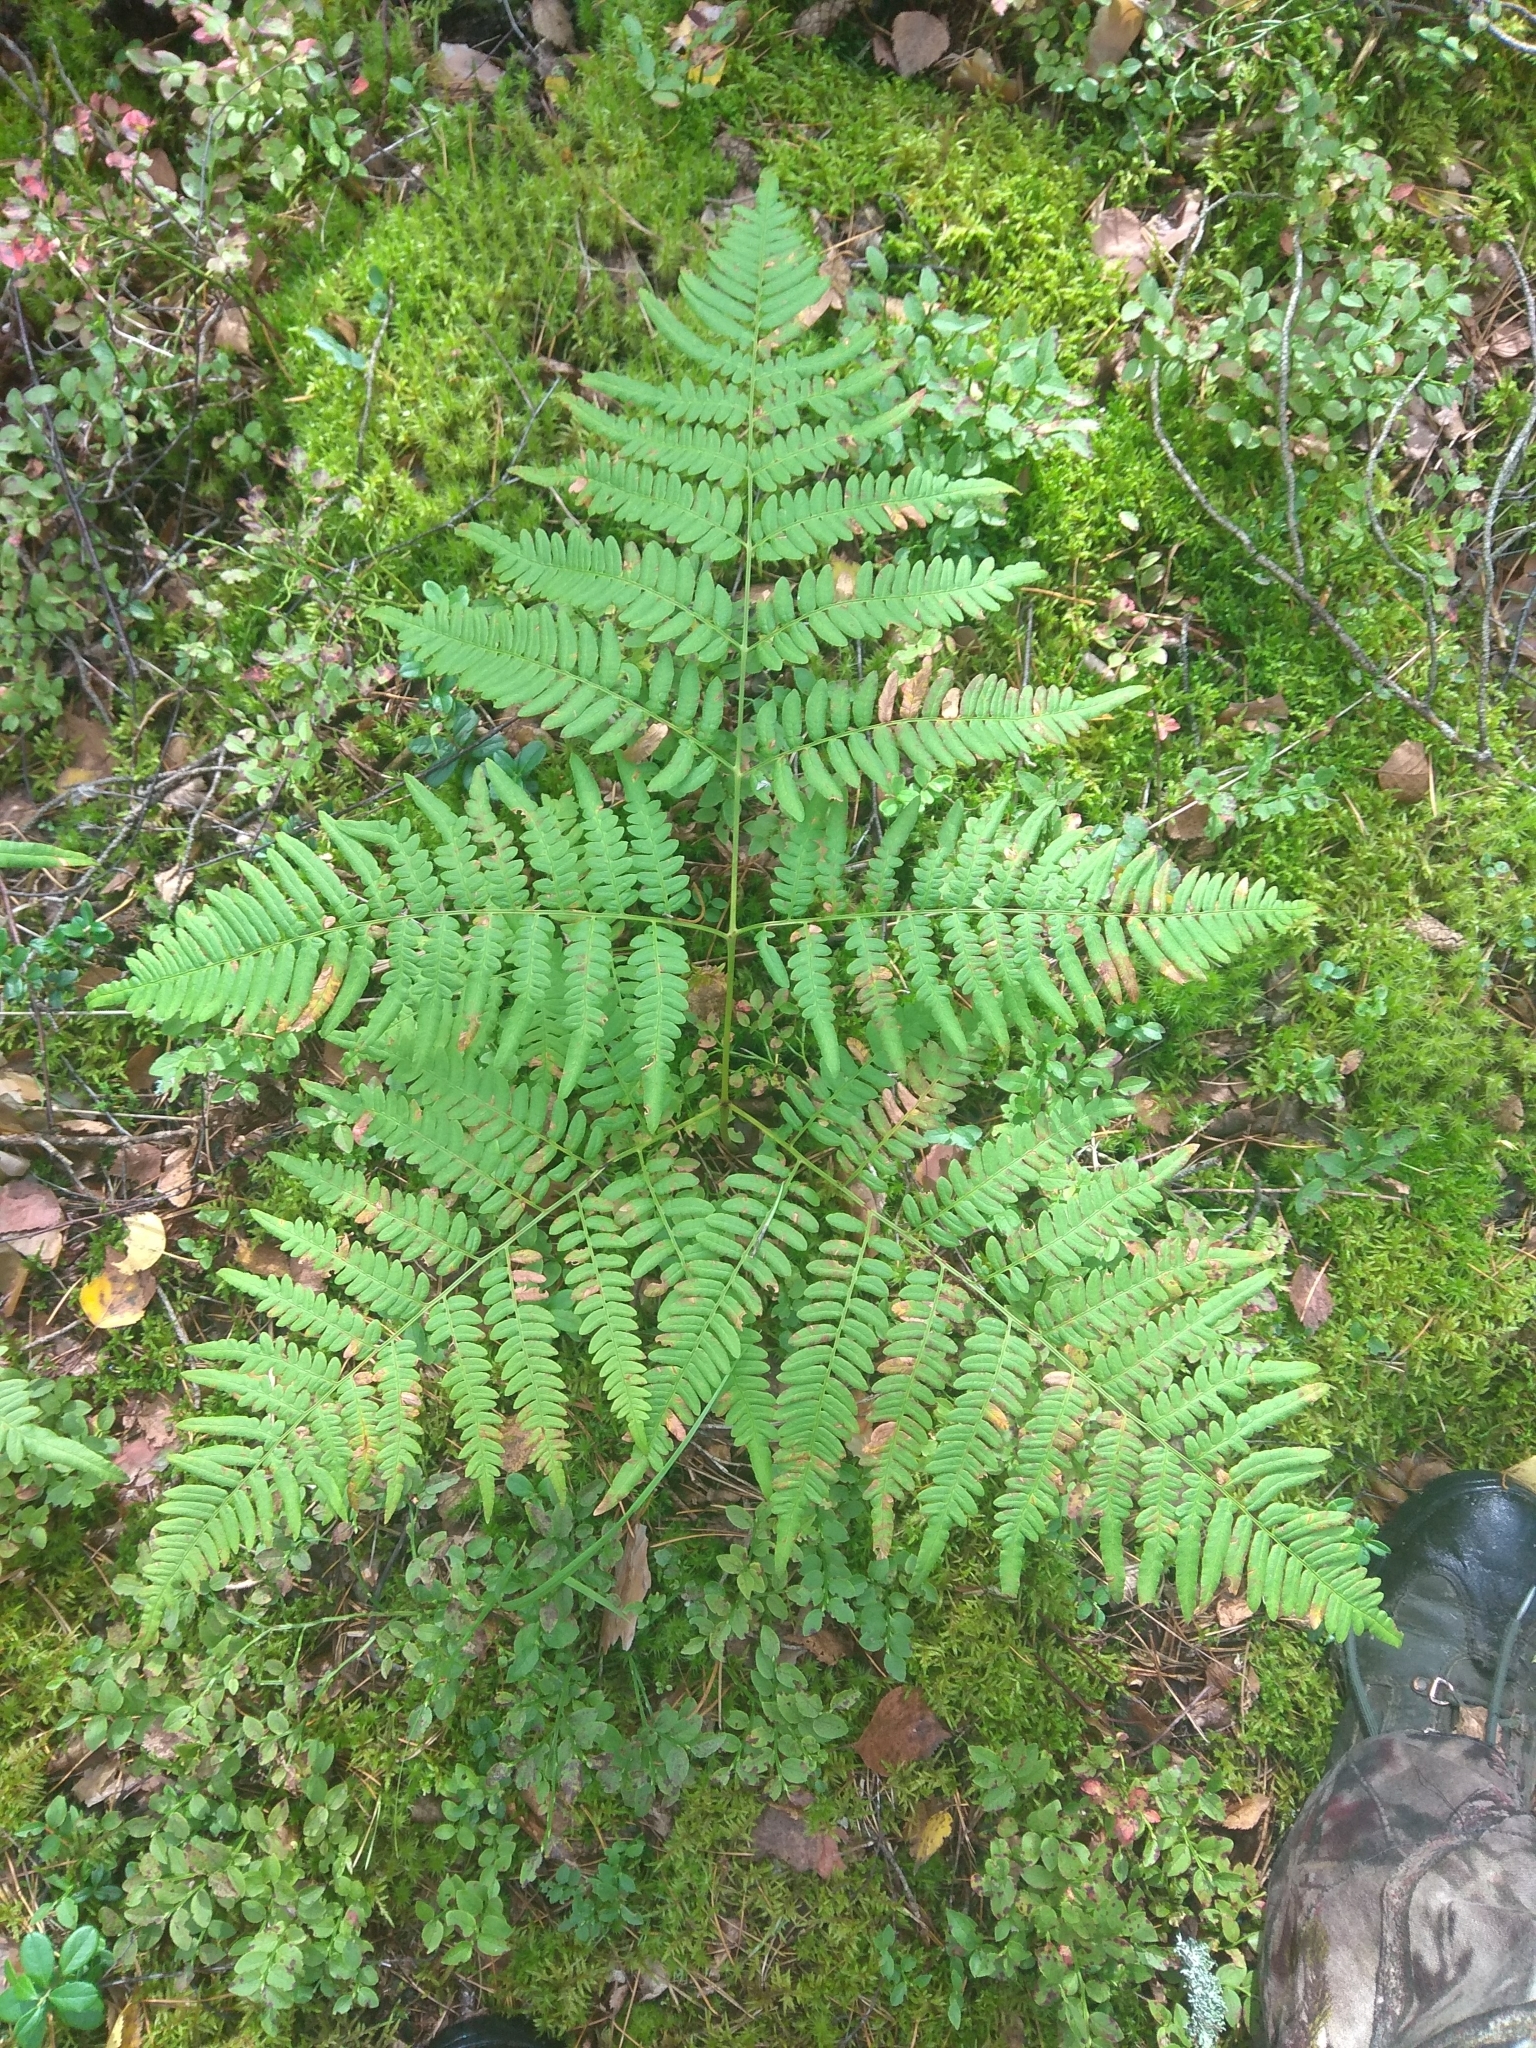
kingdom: Plantae
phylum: Tracheophyta
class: Polypodiopsida
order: Polypodiales
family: Dennstaedtiaceae
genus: Pteridium
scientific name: Pteridium aquilinum
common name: Bracken
